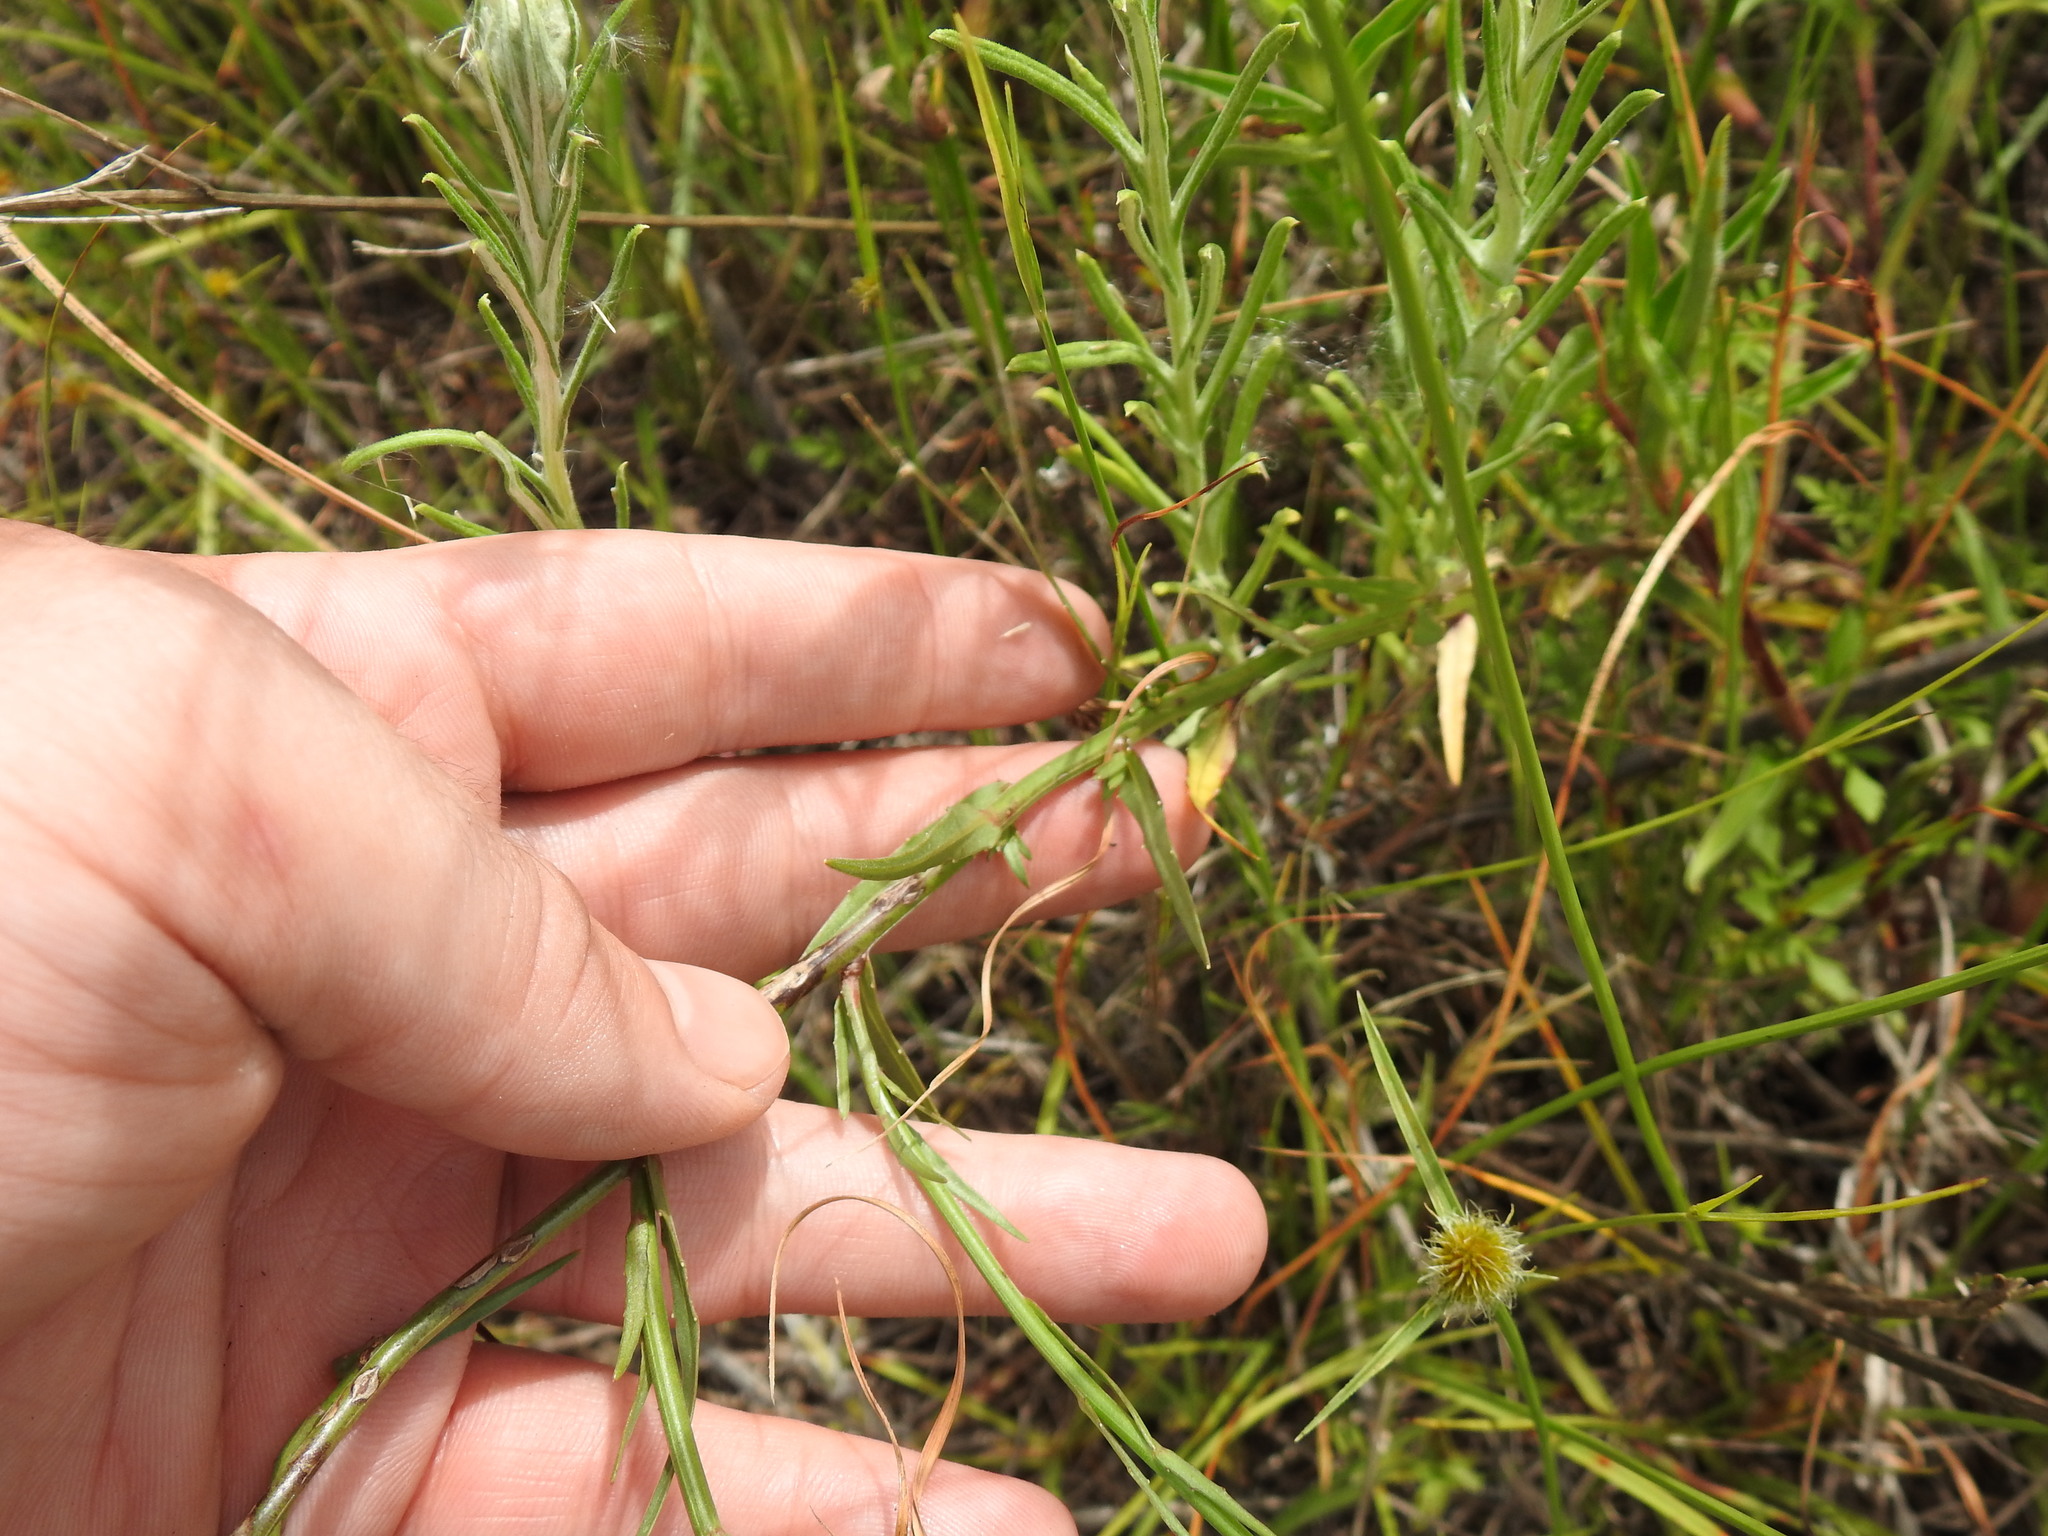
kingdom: Plantae
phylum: Tracheophyta
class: Magnoliopsida
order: Asterales
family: Campanulaceae
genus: Wahlenbergia
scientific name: Wahlenbergia undulata
